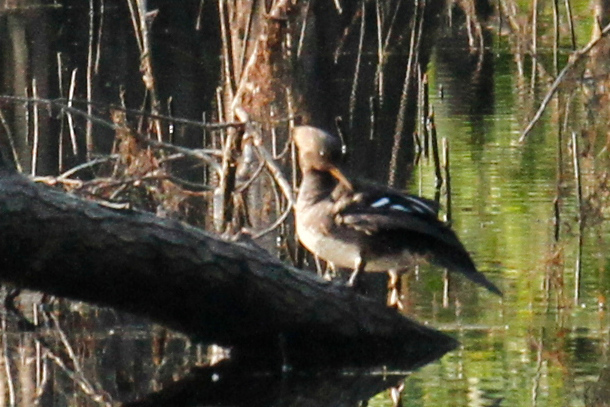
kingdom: Animalia
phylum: Chordata
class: Aves
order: Anseriformes
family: Anatidae
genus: Lophodytes
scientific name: Lophodytes cucullatus
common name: Hooded merganser
